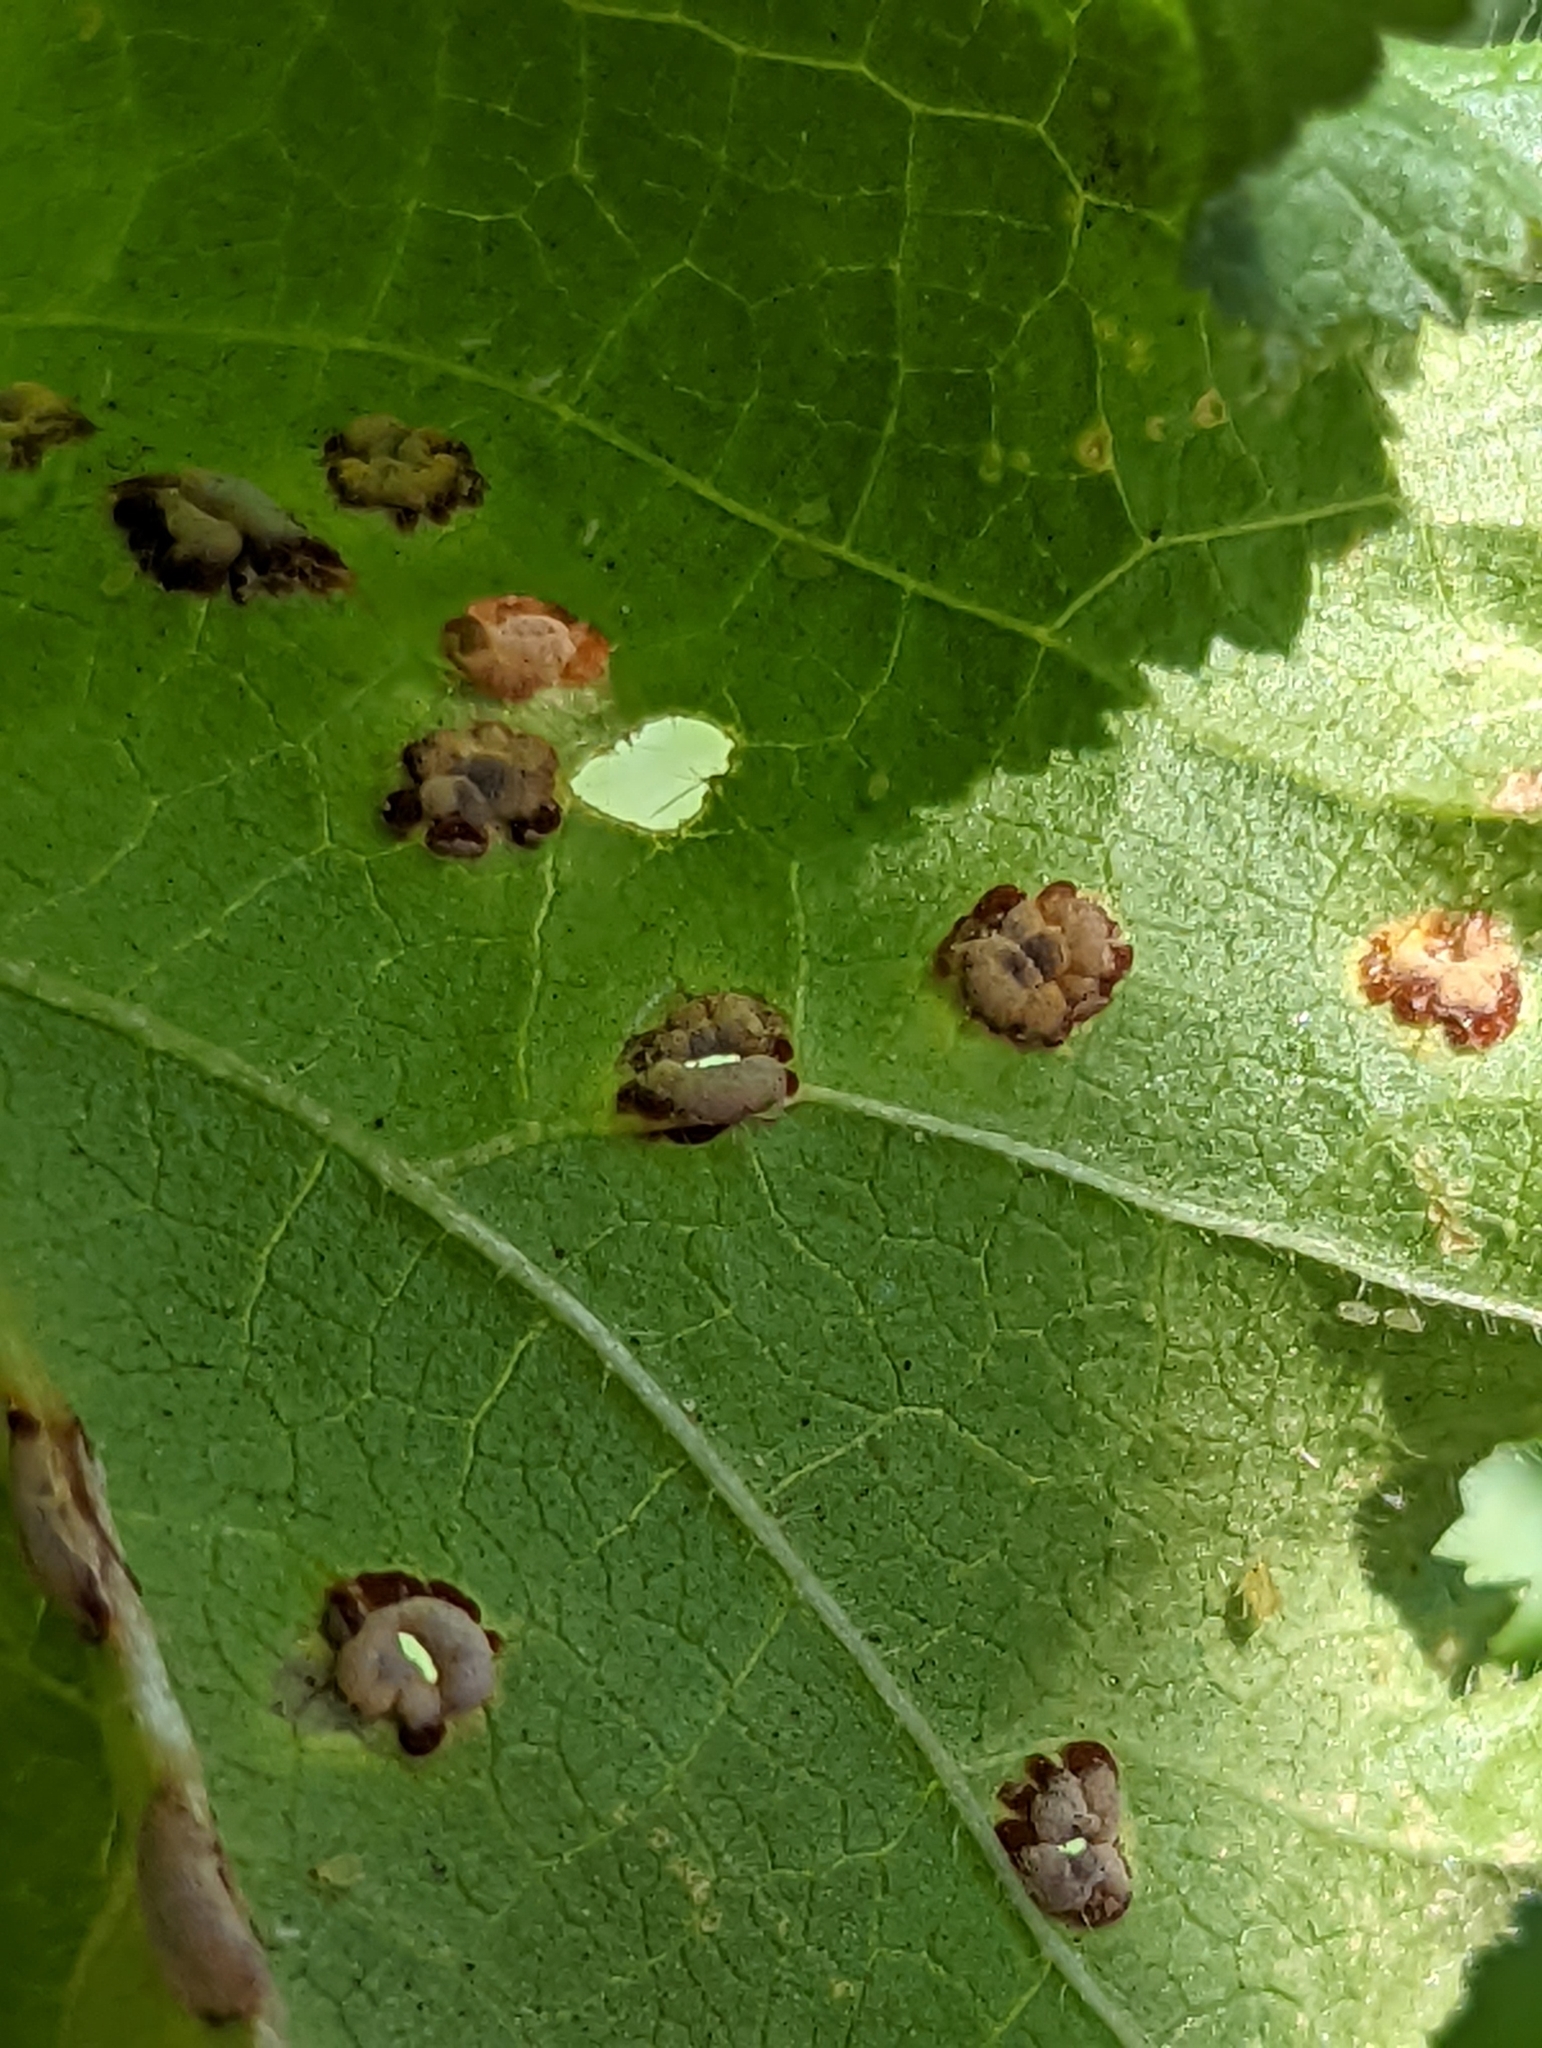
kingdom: Fungi
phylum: Basidiomycota
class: Pucciniomycetes
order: Pucciniales
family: Pucciniaceae
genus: Puccinia
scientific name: Puccinia malvacearum
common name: Hollyhock rust
